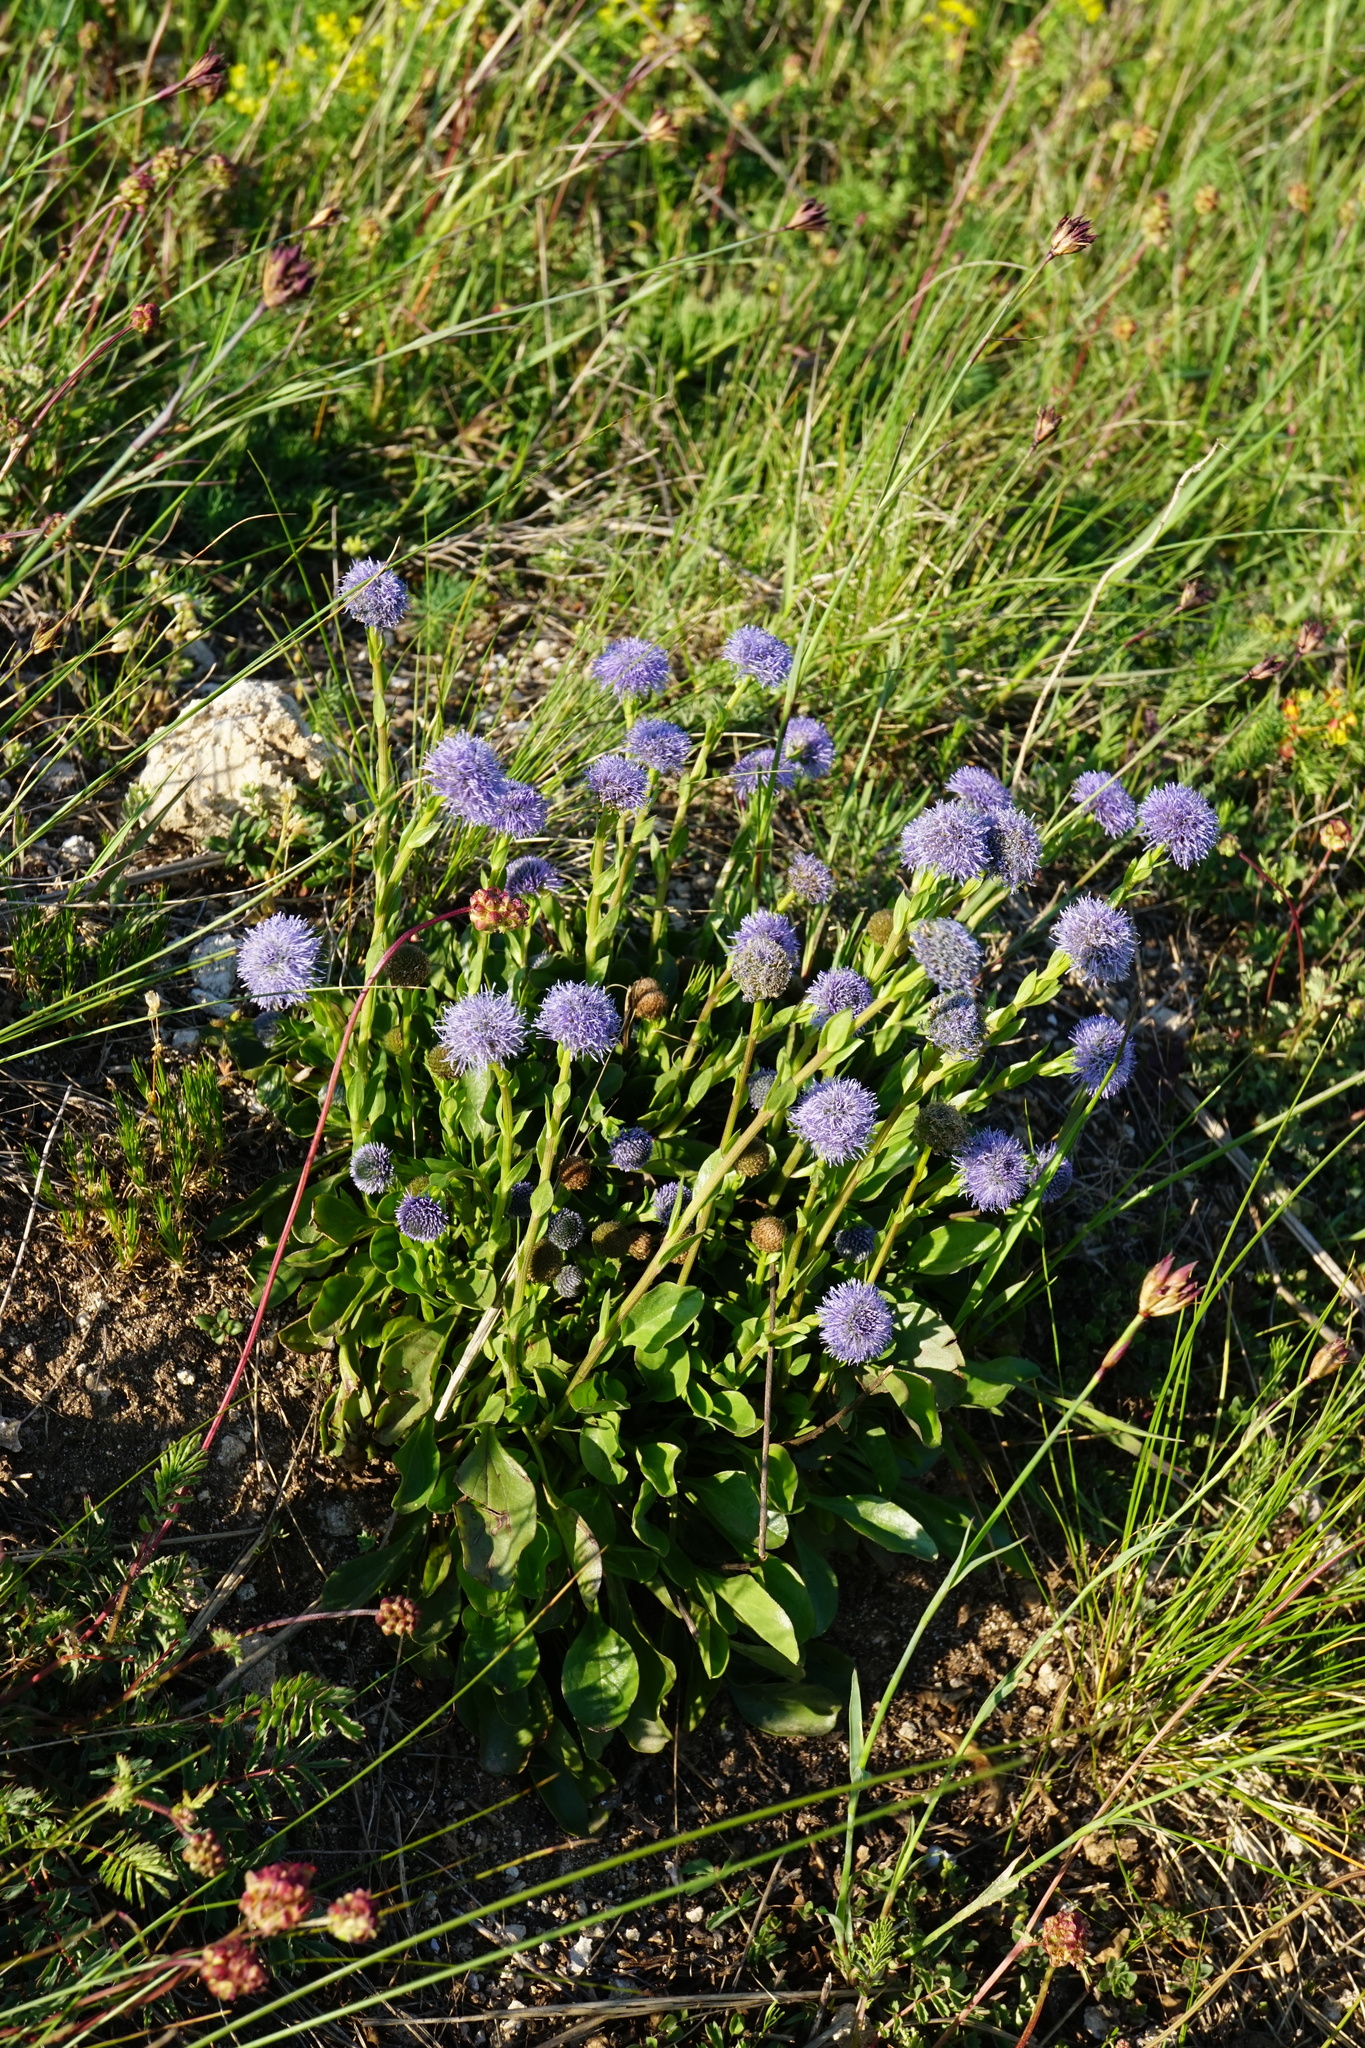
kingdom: Plantae
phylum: Tracheophyta
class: Magnoliopsida
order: Lamiales
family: Plantaginaceae
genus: Globularia
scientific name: Globularia bisnagarica
